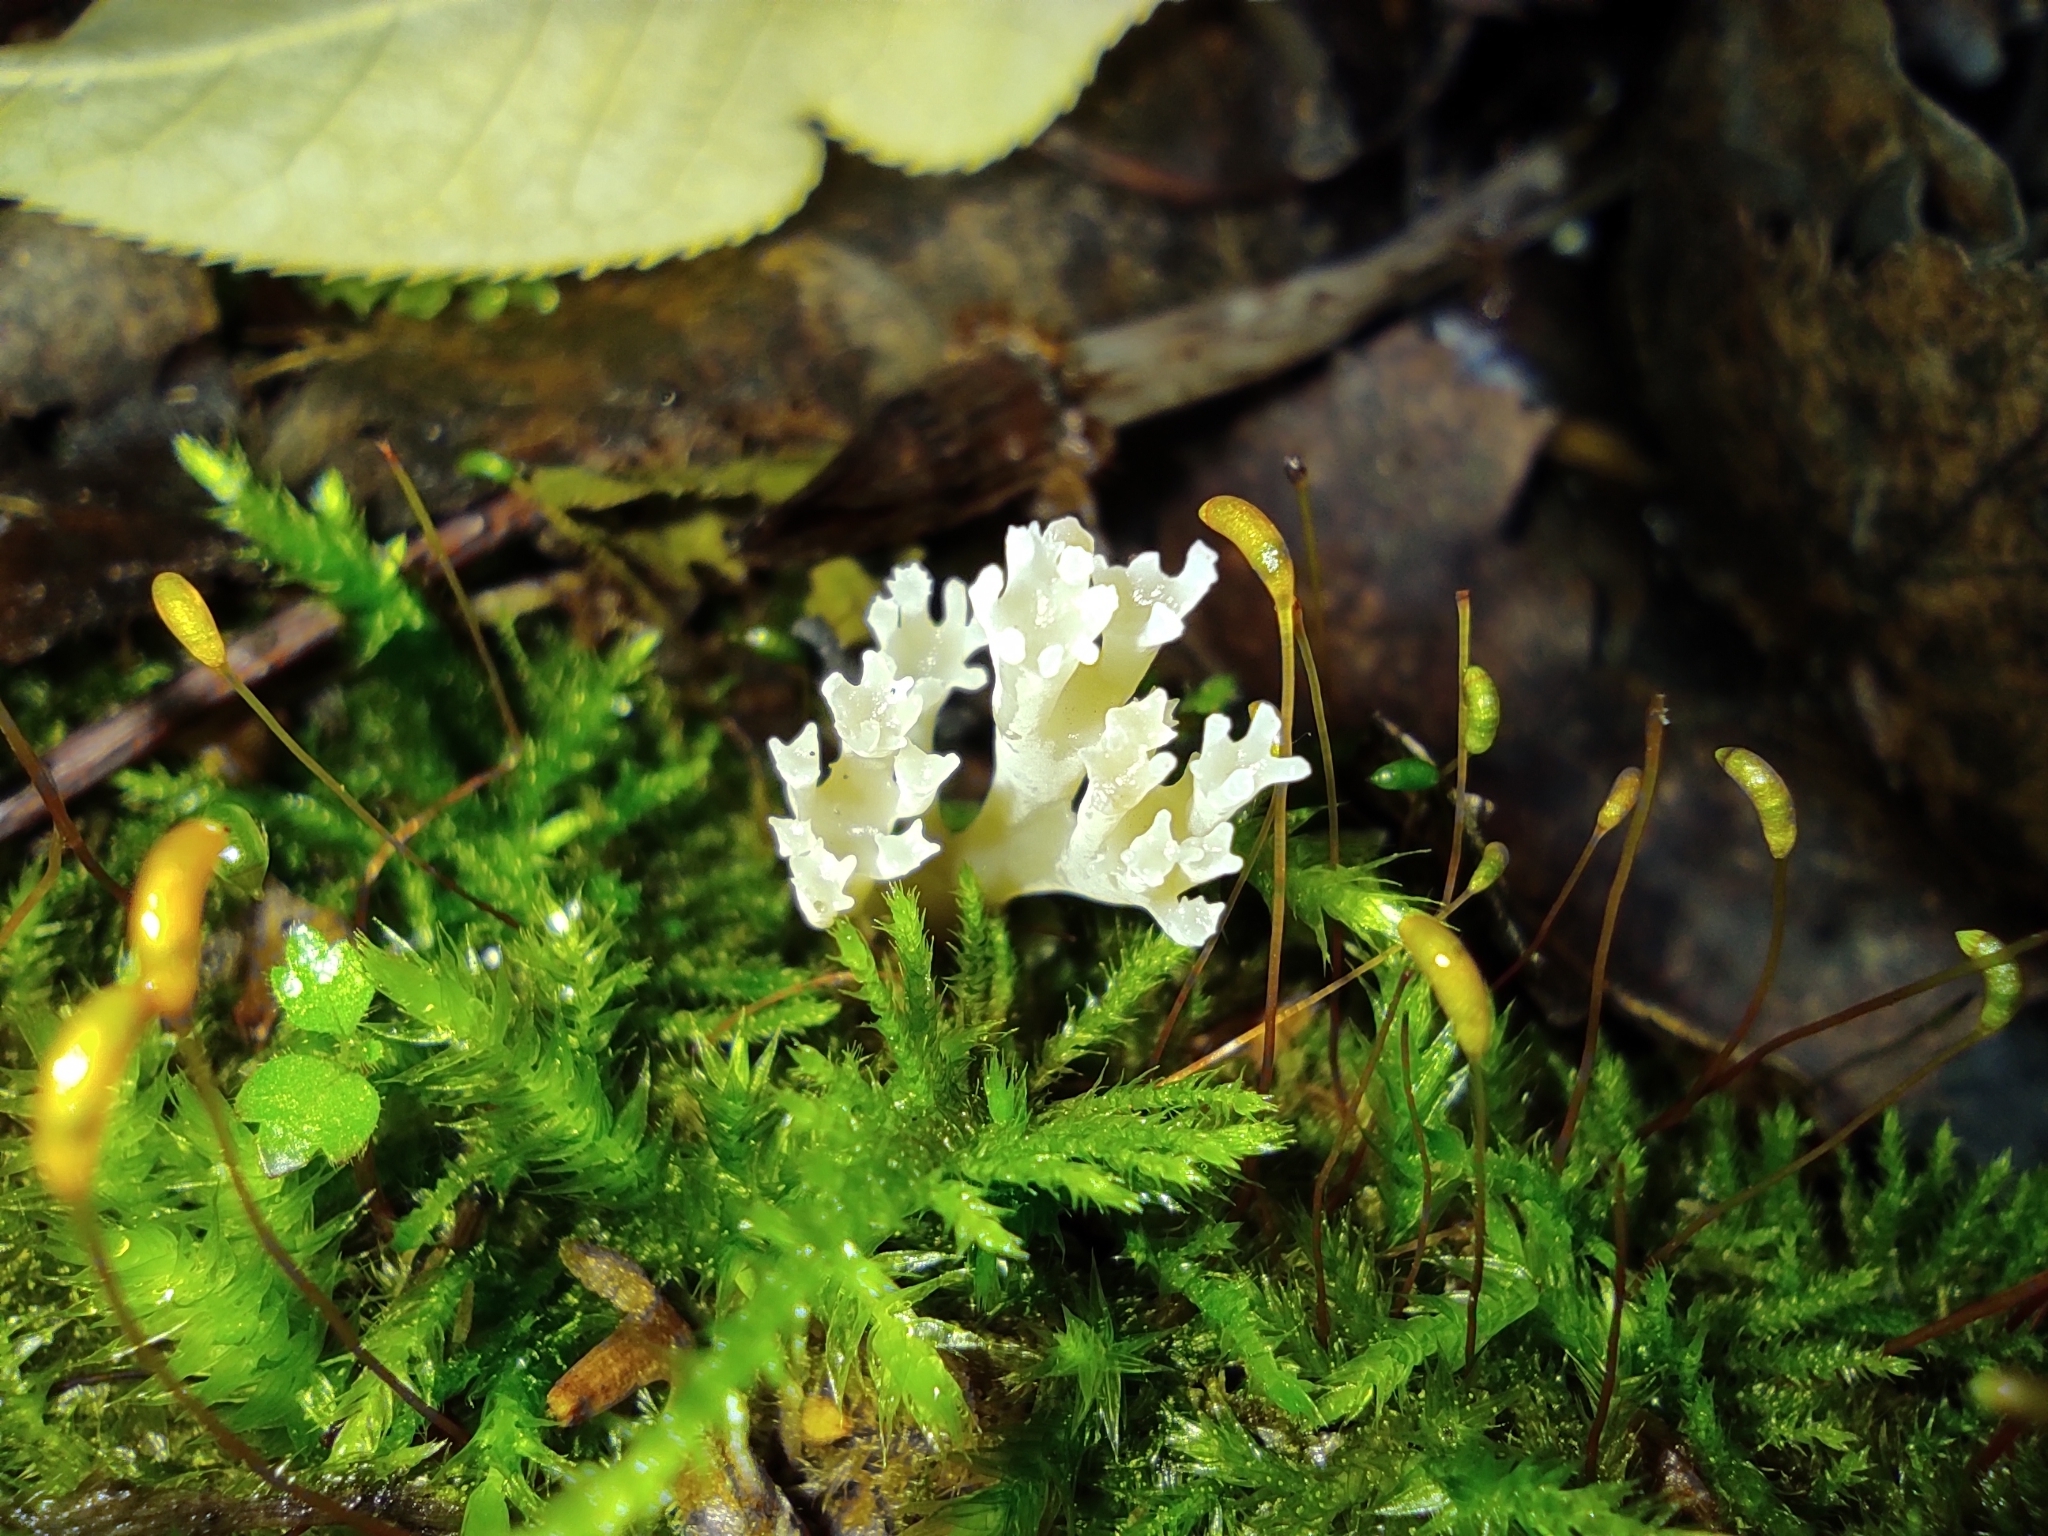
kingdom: Fungi
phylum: Basidiomycota
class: Agaricomycetes
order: Russulales
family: Auriscalpiaceae
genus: Artomyces
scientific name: Artomyces pyxidatus
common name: Crown-tipped coral fungus
